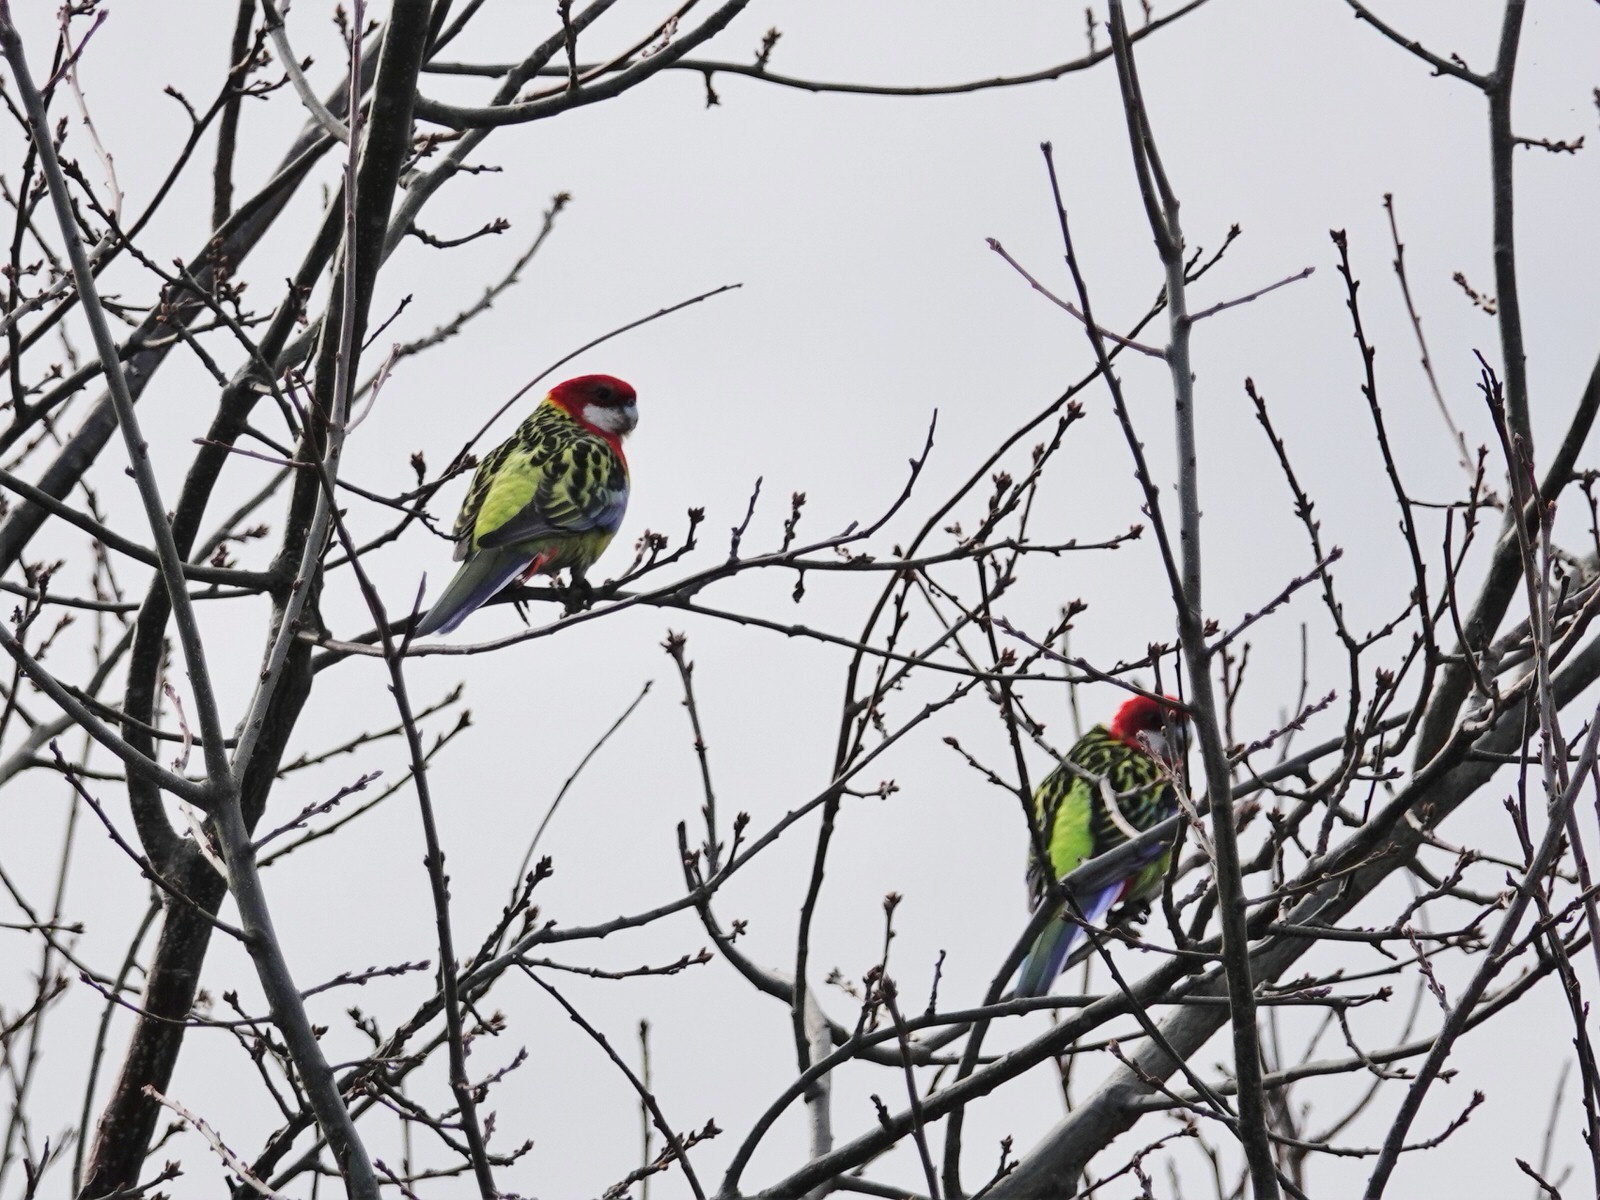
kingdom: Animalia
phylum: Chordata
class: Aves
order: Psittaciformes
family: Psittacidae
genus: Platycercus
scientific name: Platycercus eximius
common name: Eastern rosella
